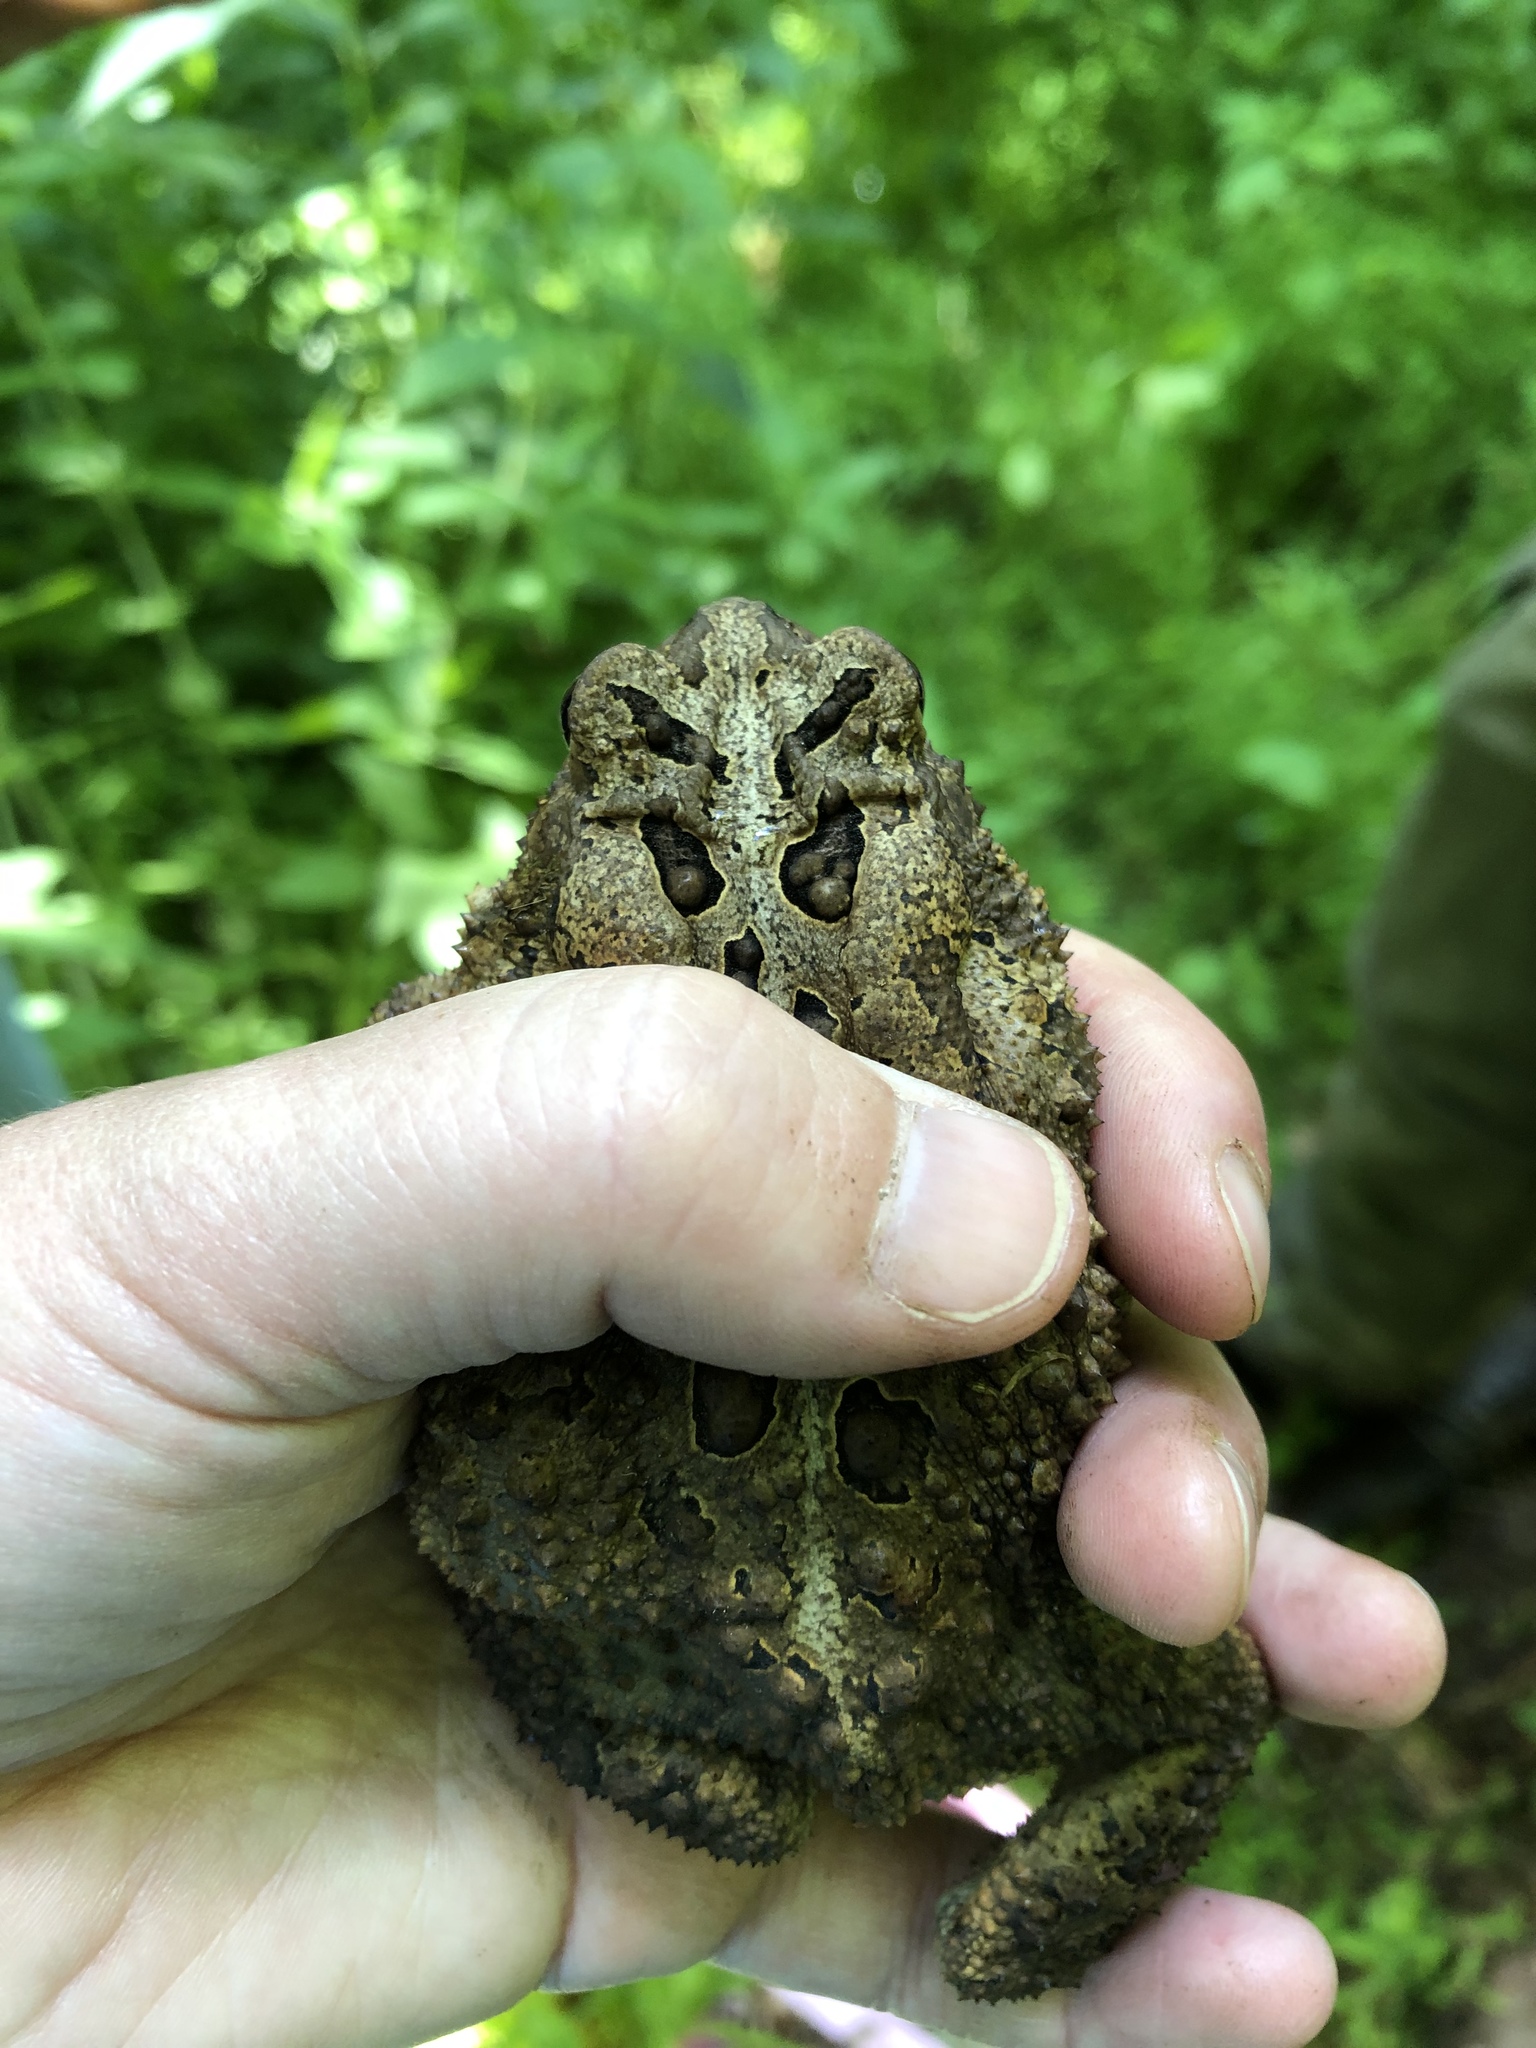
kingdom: Animalia
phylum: Chordata
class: Amphibia
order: Anura
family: Bufonidae
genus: Anaxyrus
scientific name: Anaxyrus americanus
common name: American toad
